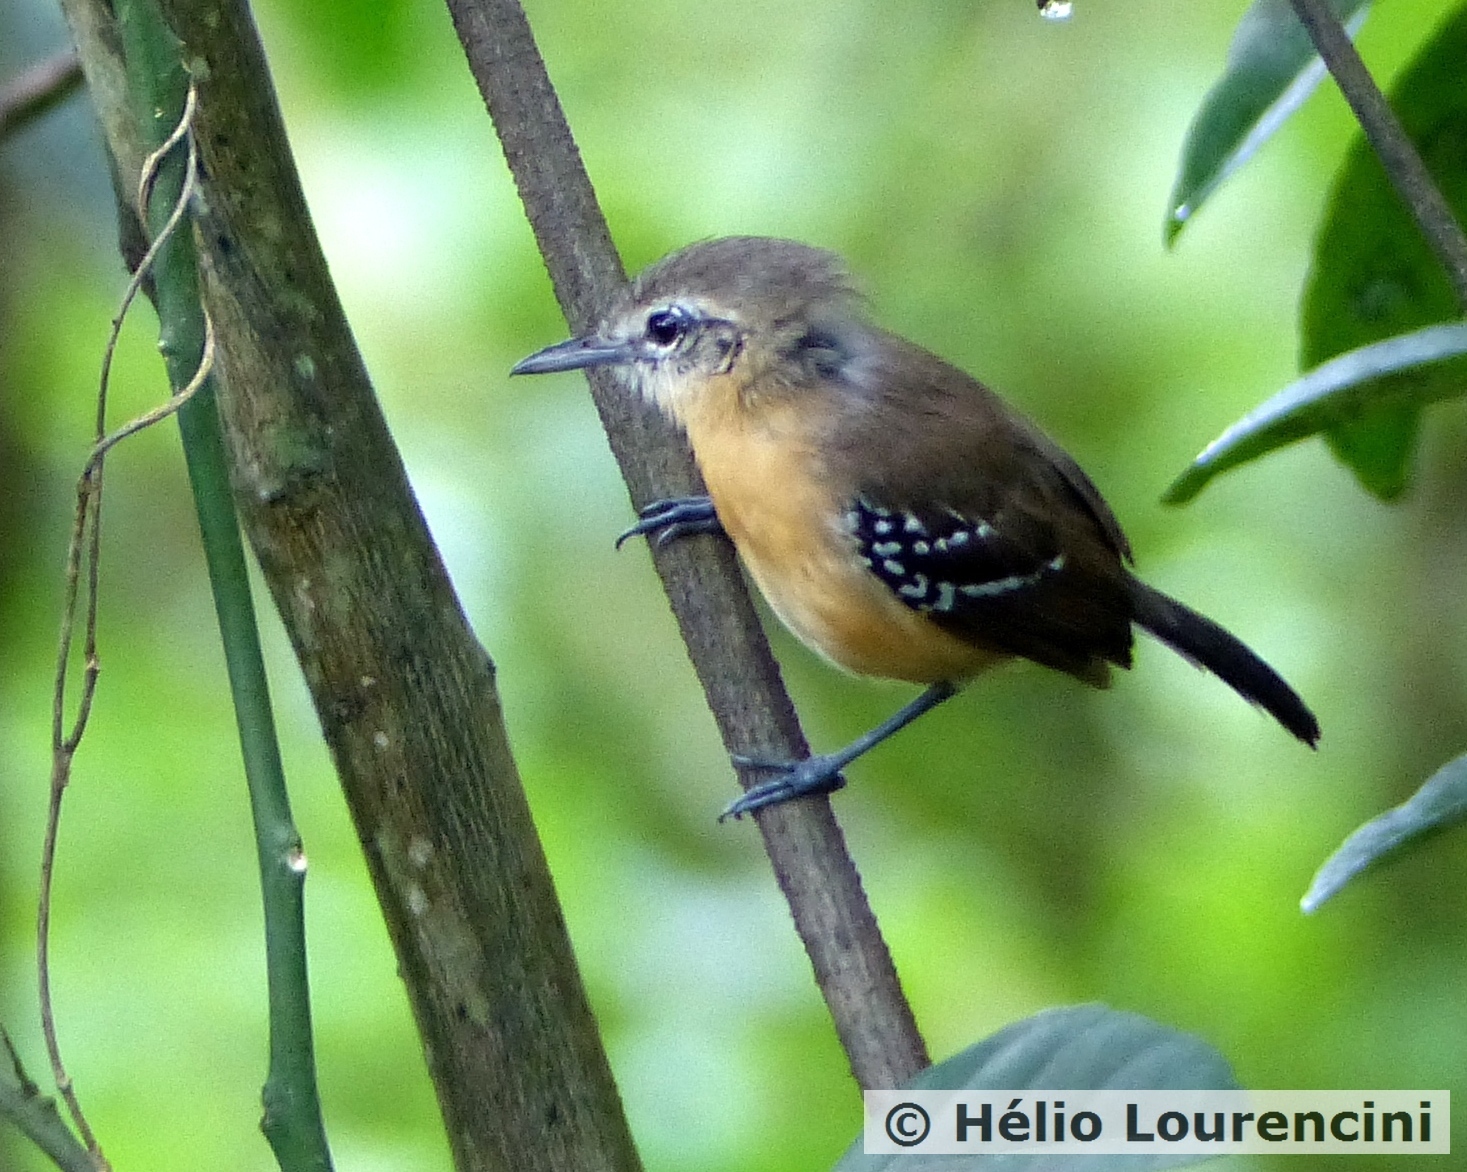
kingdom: Animalia
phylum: Chordata
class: Aves
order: Passeriformes
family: Thamnophilidae
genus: Formicivora
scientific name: Formicivora grisea
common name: Southern white-fringed antwren
